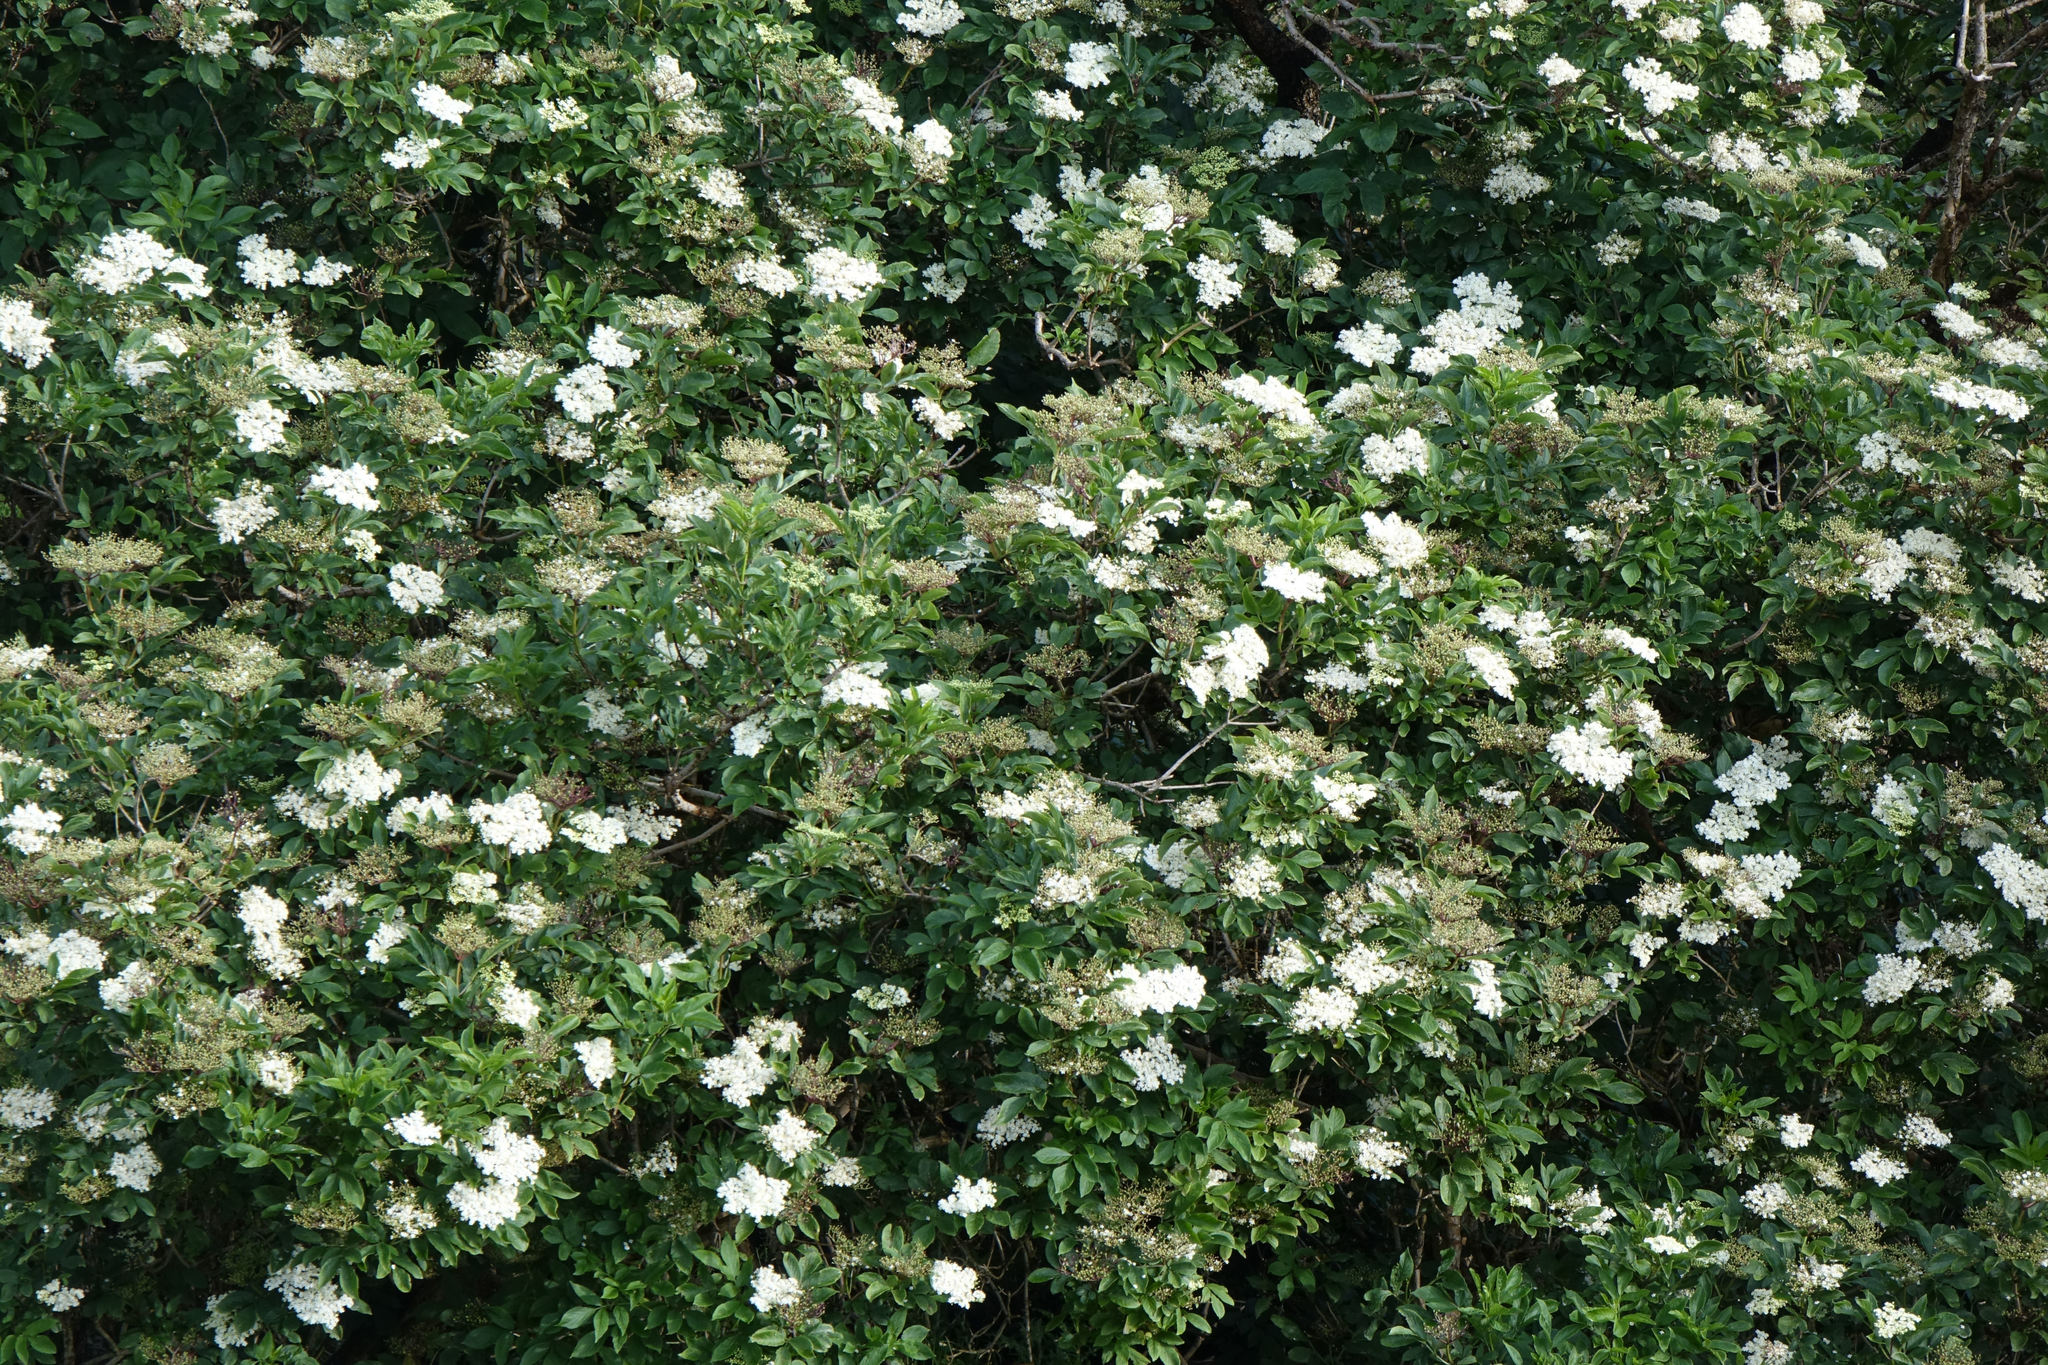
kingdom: Plantae
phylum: Tracheophyta
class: Magnoliopsida
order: Dipsacales
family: Viburnaceae
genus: Sambucus
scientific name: Sambucus nigra
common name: Elder
